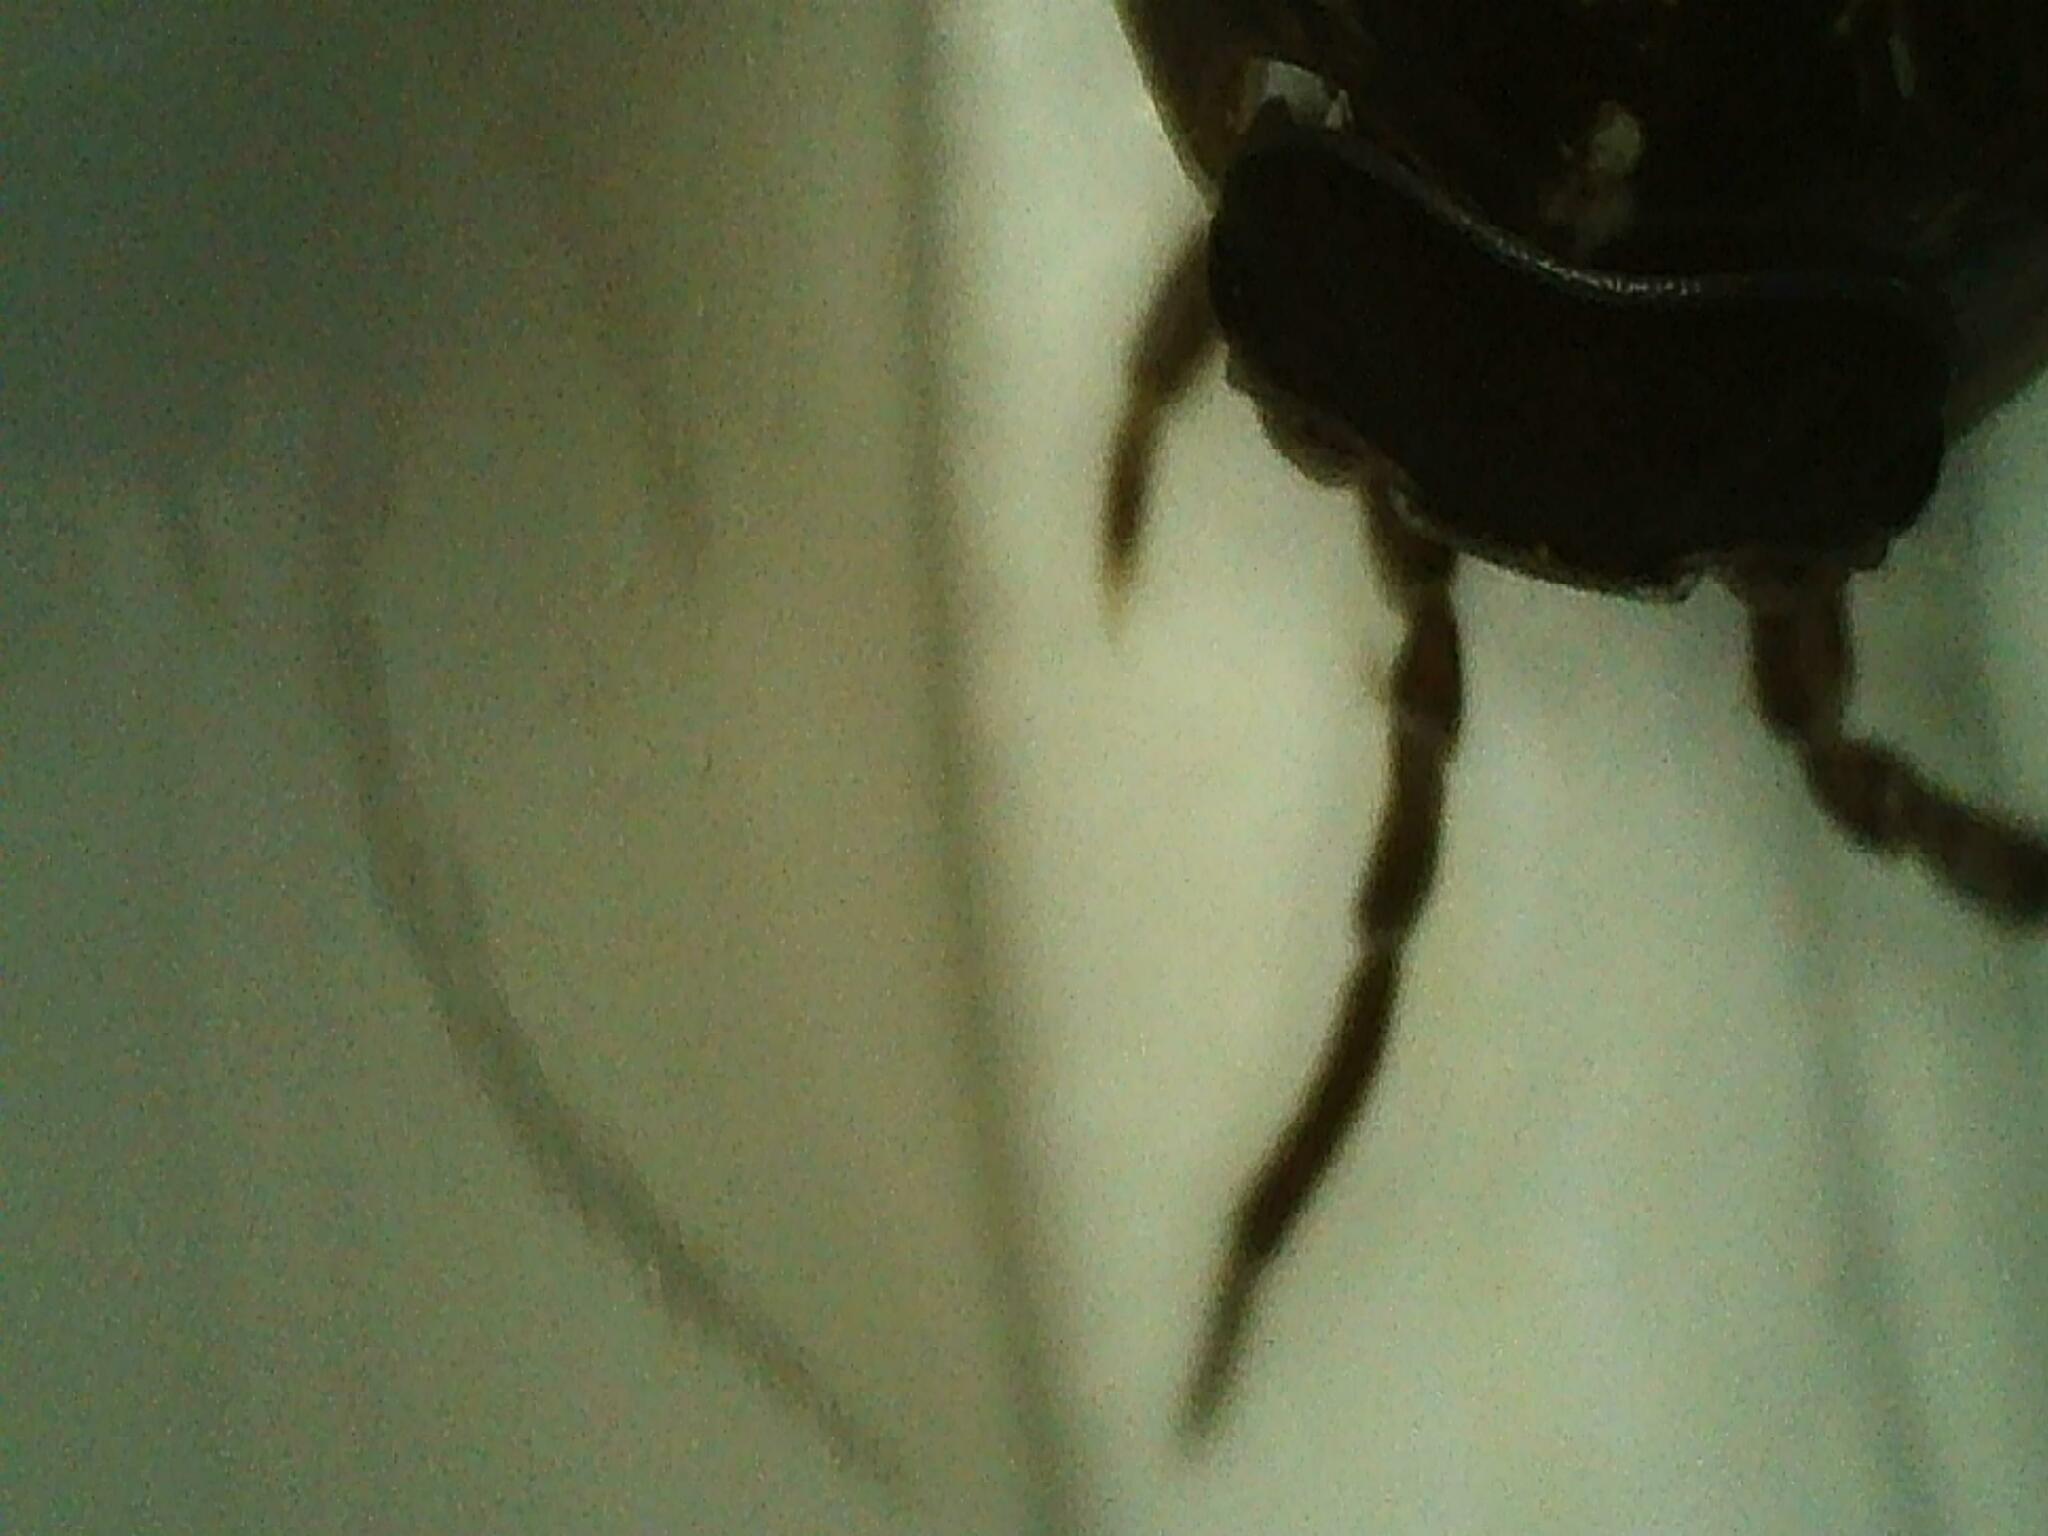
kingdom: Animalia
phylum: Arthropoda
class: Malacostraca
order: Isopoda
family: Armadillidiidae
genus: Armadillidium
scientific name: Armadillidium vulgare
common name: Common pill woodlouse
